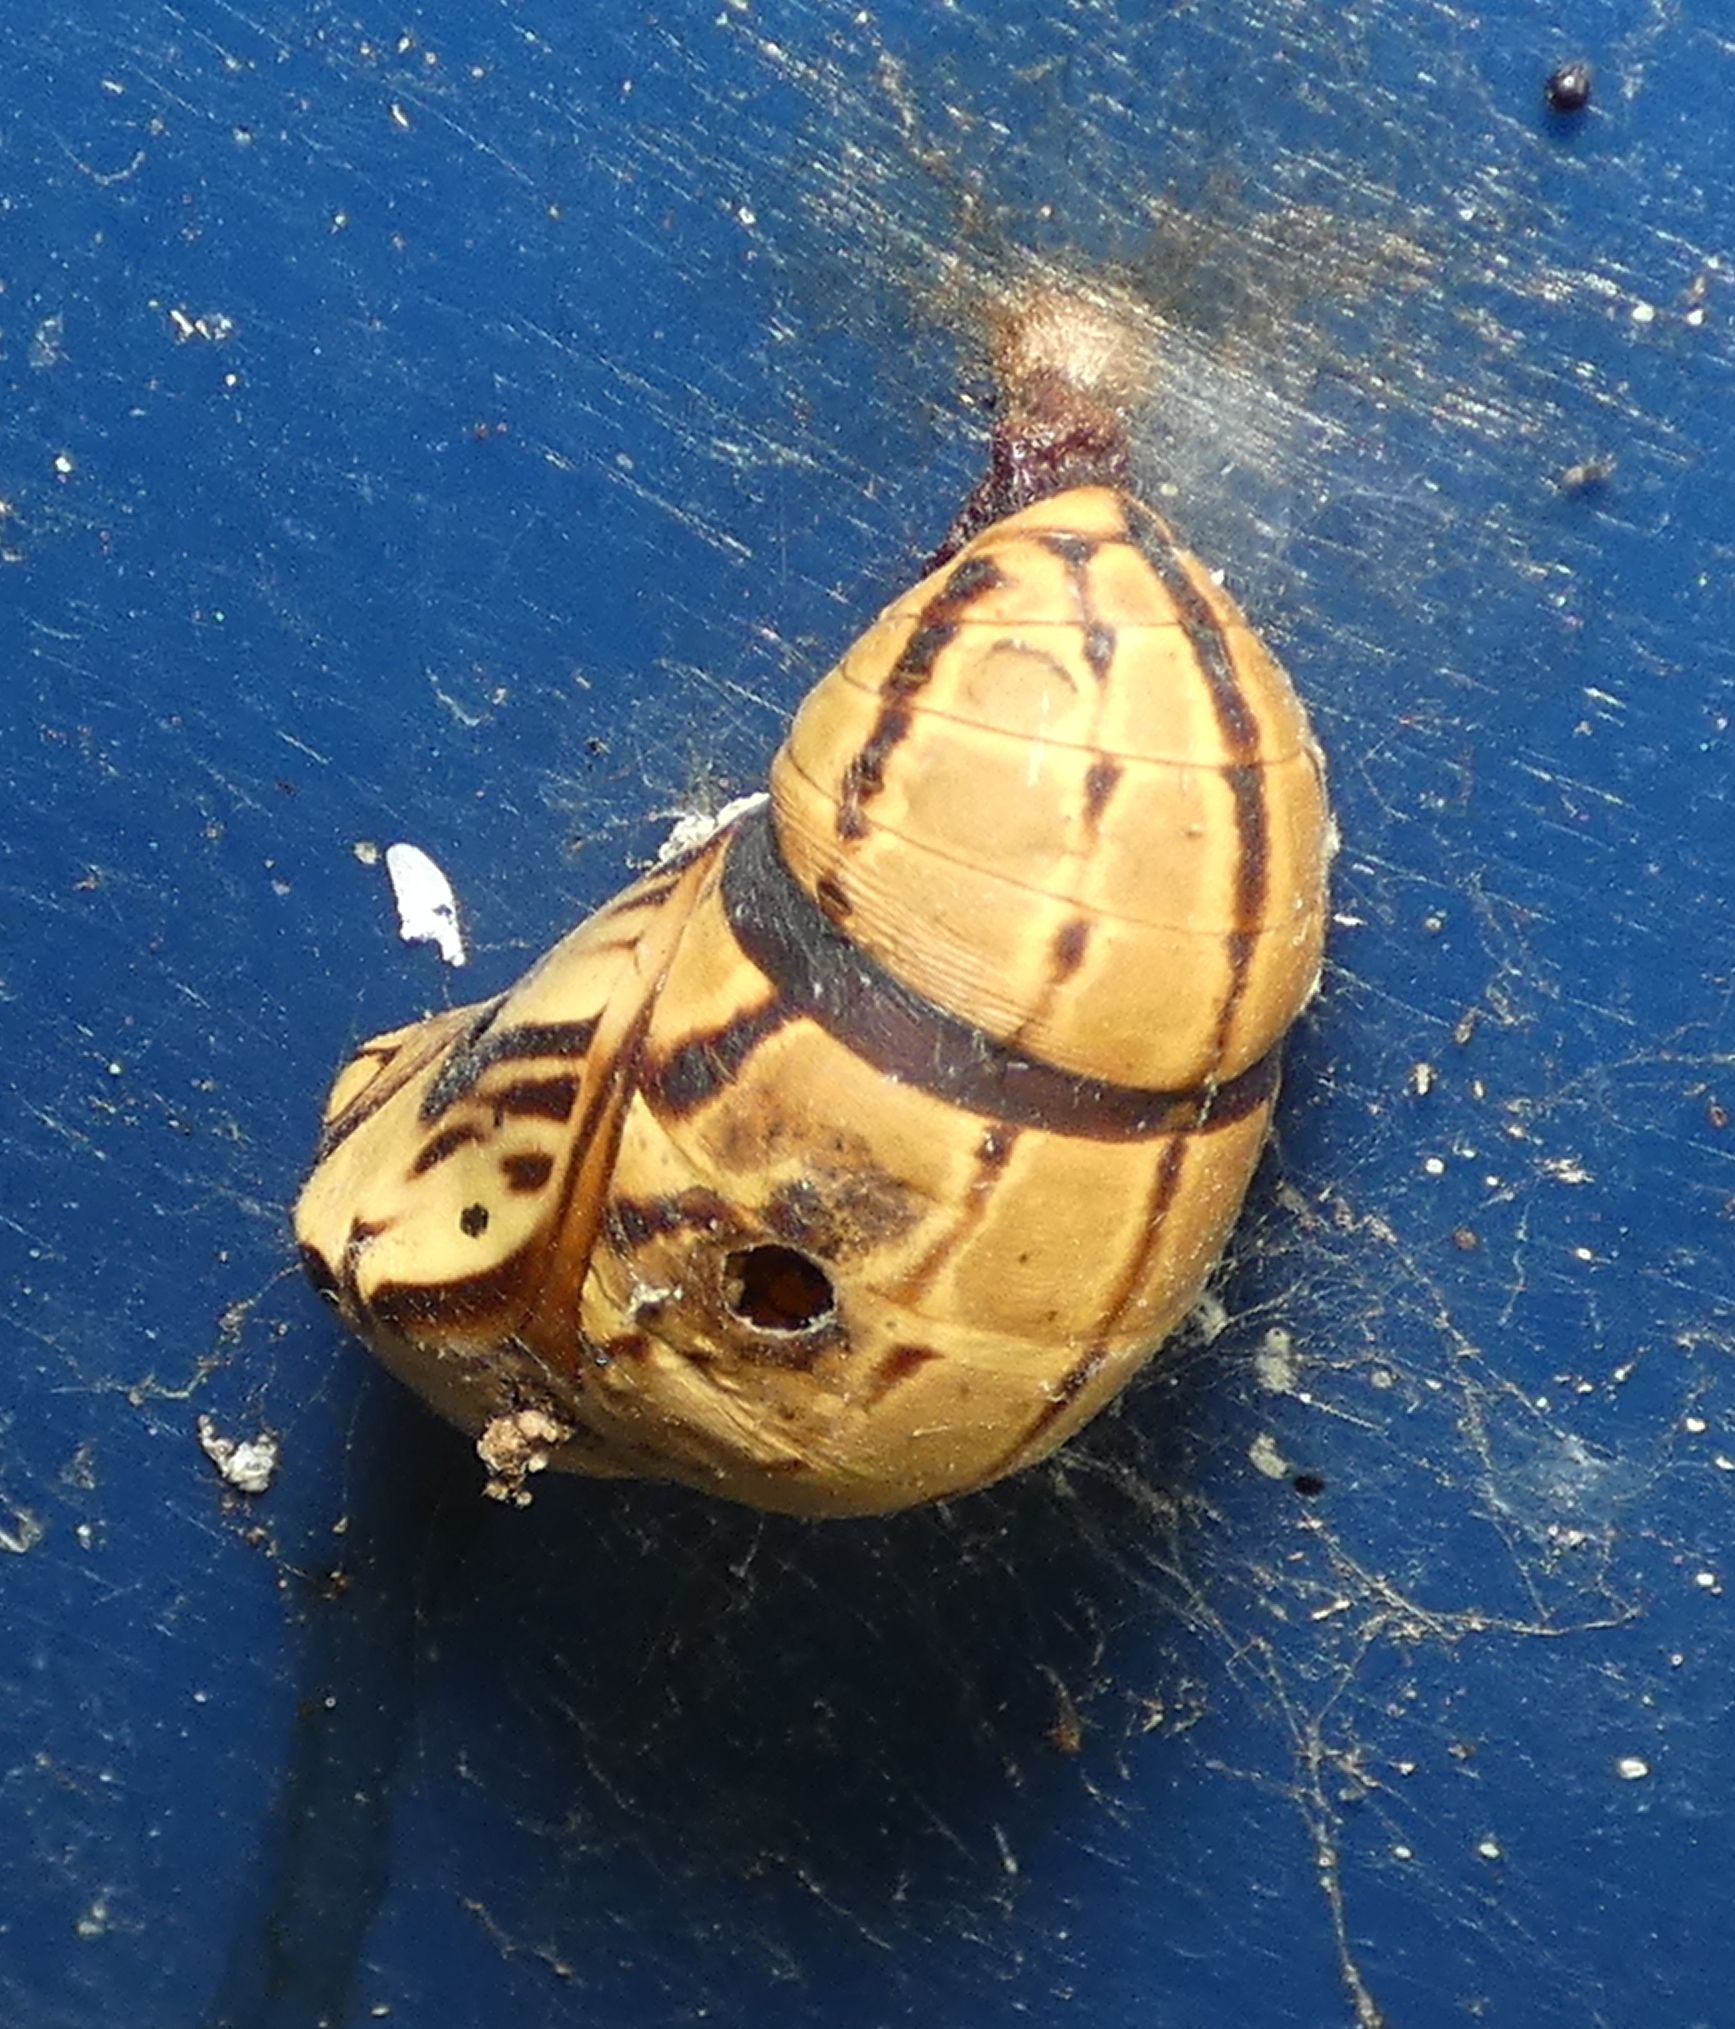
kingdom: Animalia
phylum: Arthropoda
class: Insecta
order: Lepidoptera
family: Nymphalidae
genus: Brassolis
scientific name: Brassolis sophorae
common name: Coconut caterpillar
